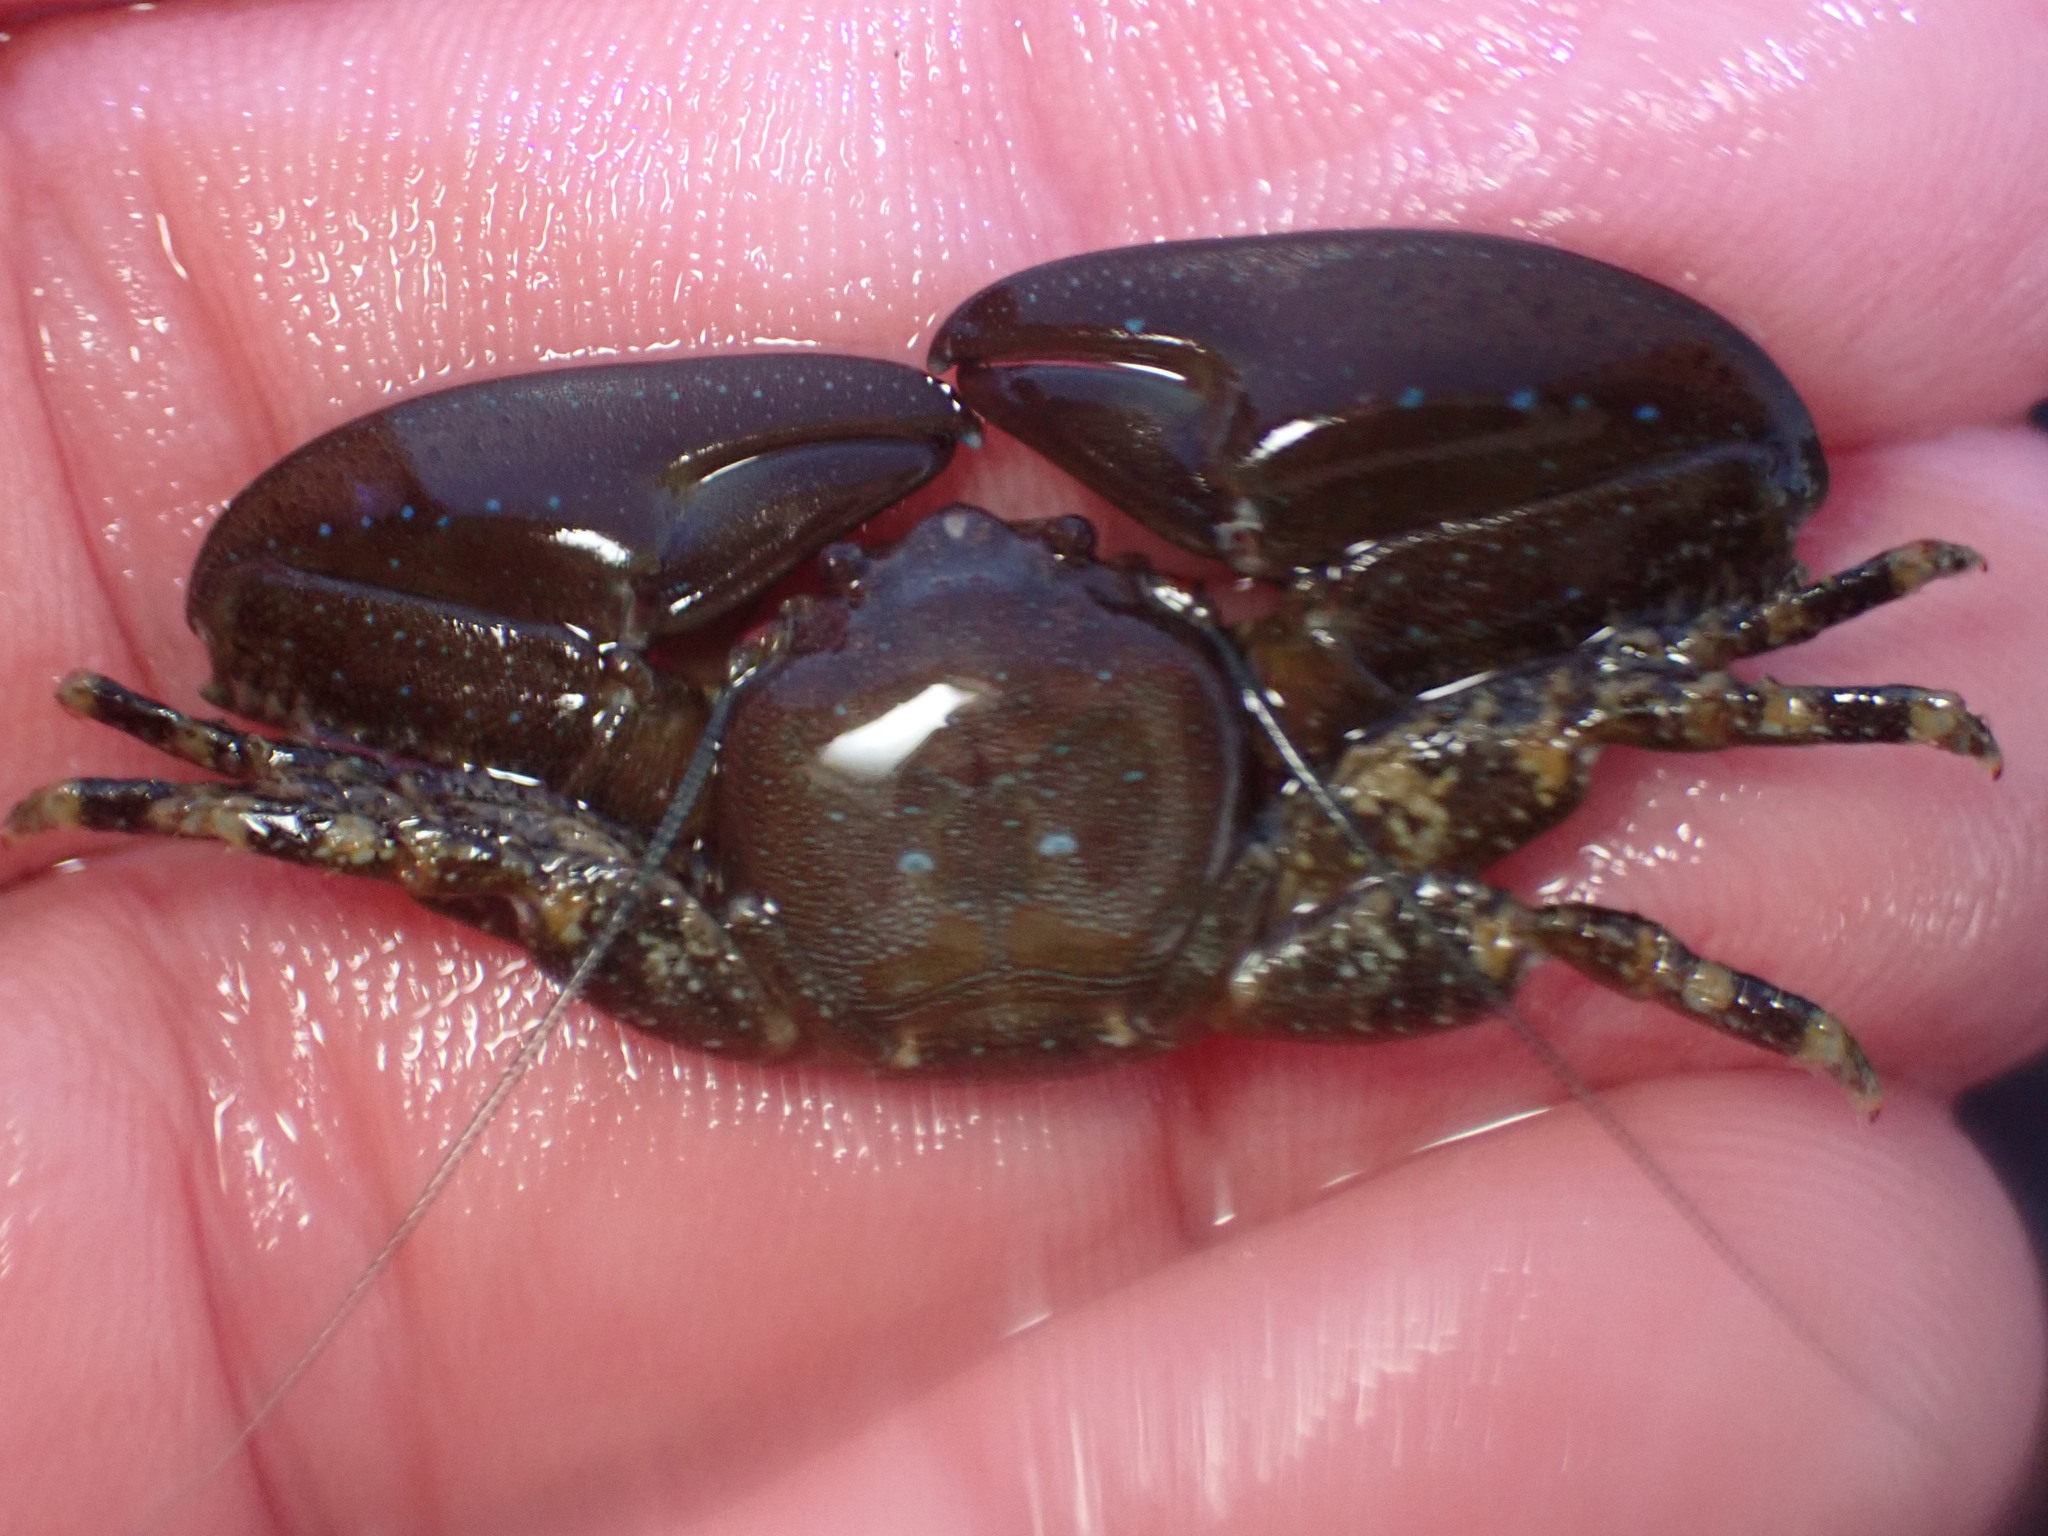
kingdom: Animalia
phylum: Arthropoda
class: Malacostraca
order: Decapoda
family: Porcellanidae
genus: Petrolisthes
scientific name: Petrolisthes manimaculis
